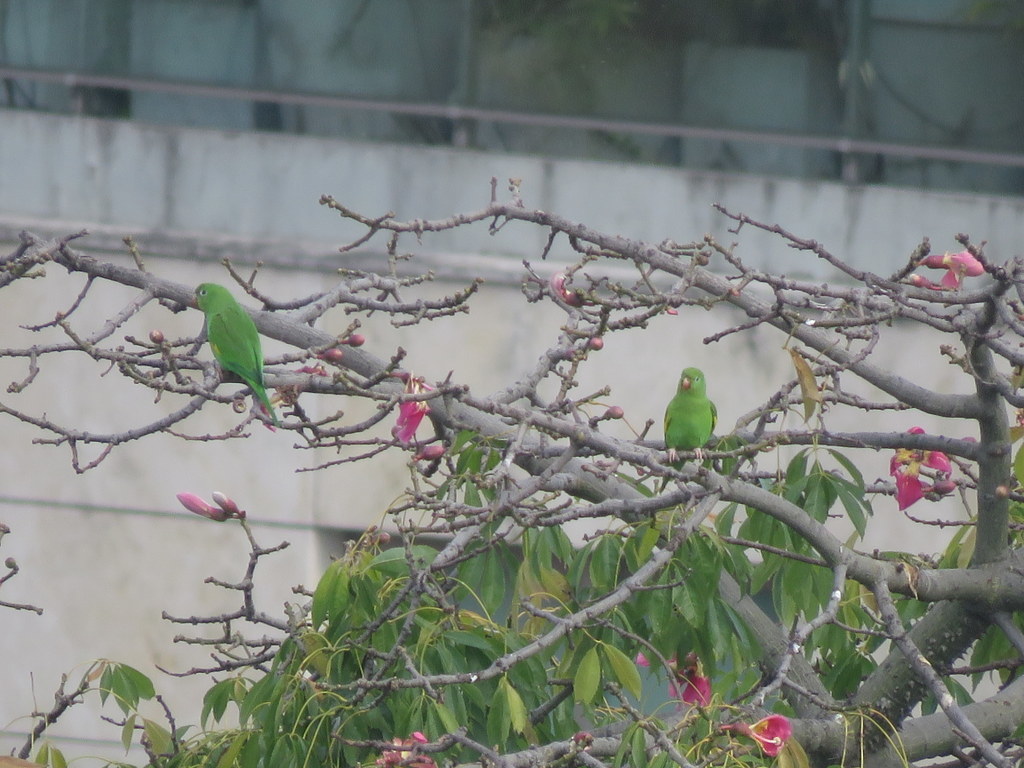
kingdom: Animalia
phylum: Chordata
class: Aves
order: Psittaciformes
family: Psittacidae
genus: Brotogeris
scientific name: Brotogeris chiriri
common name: Yellow-chevroned parakeet
